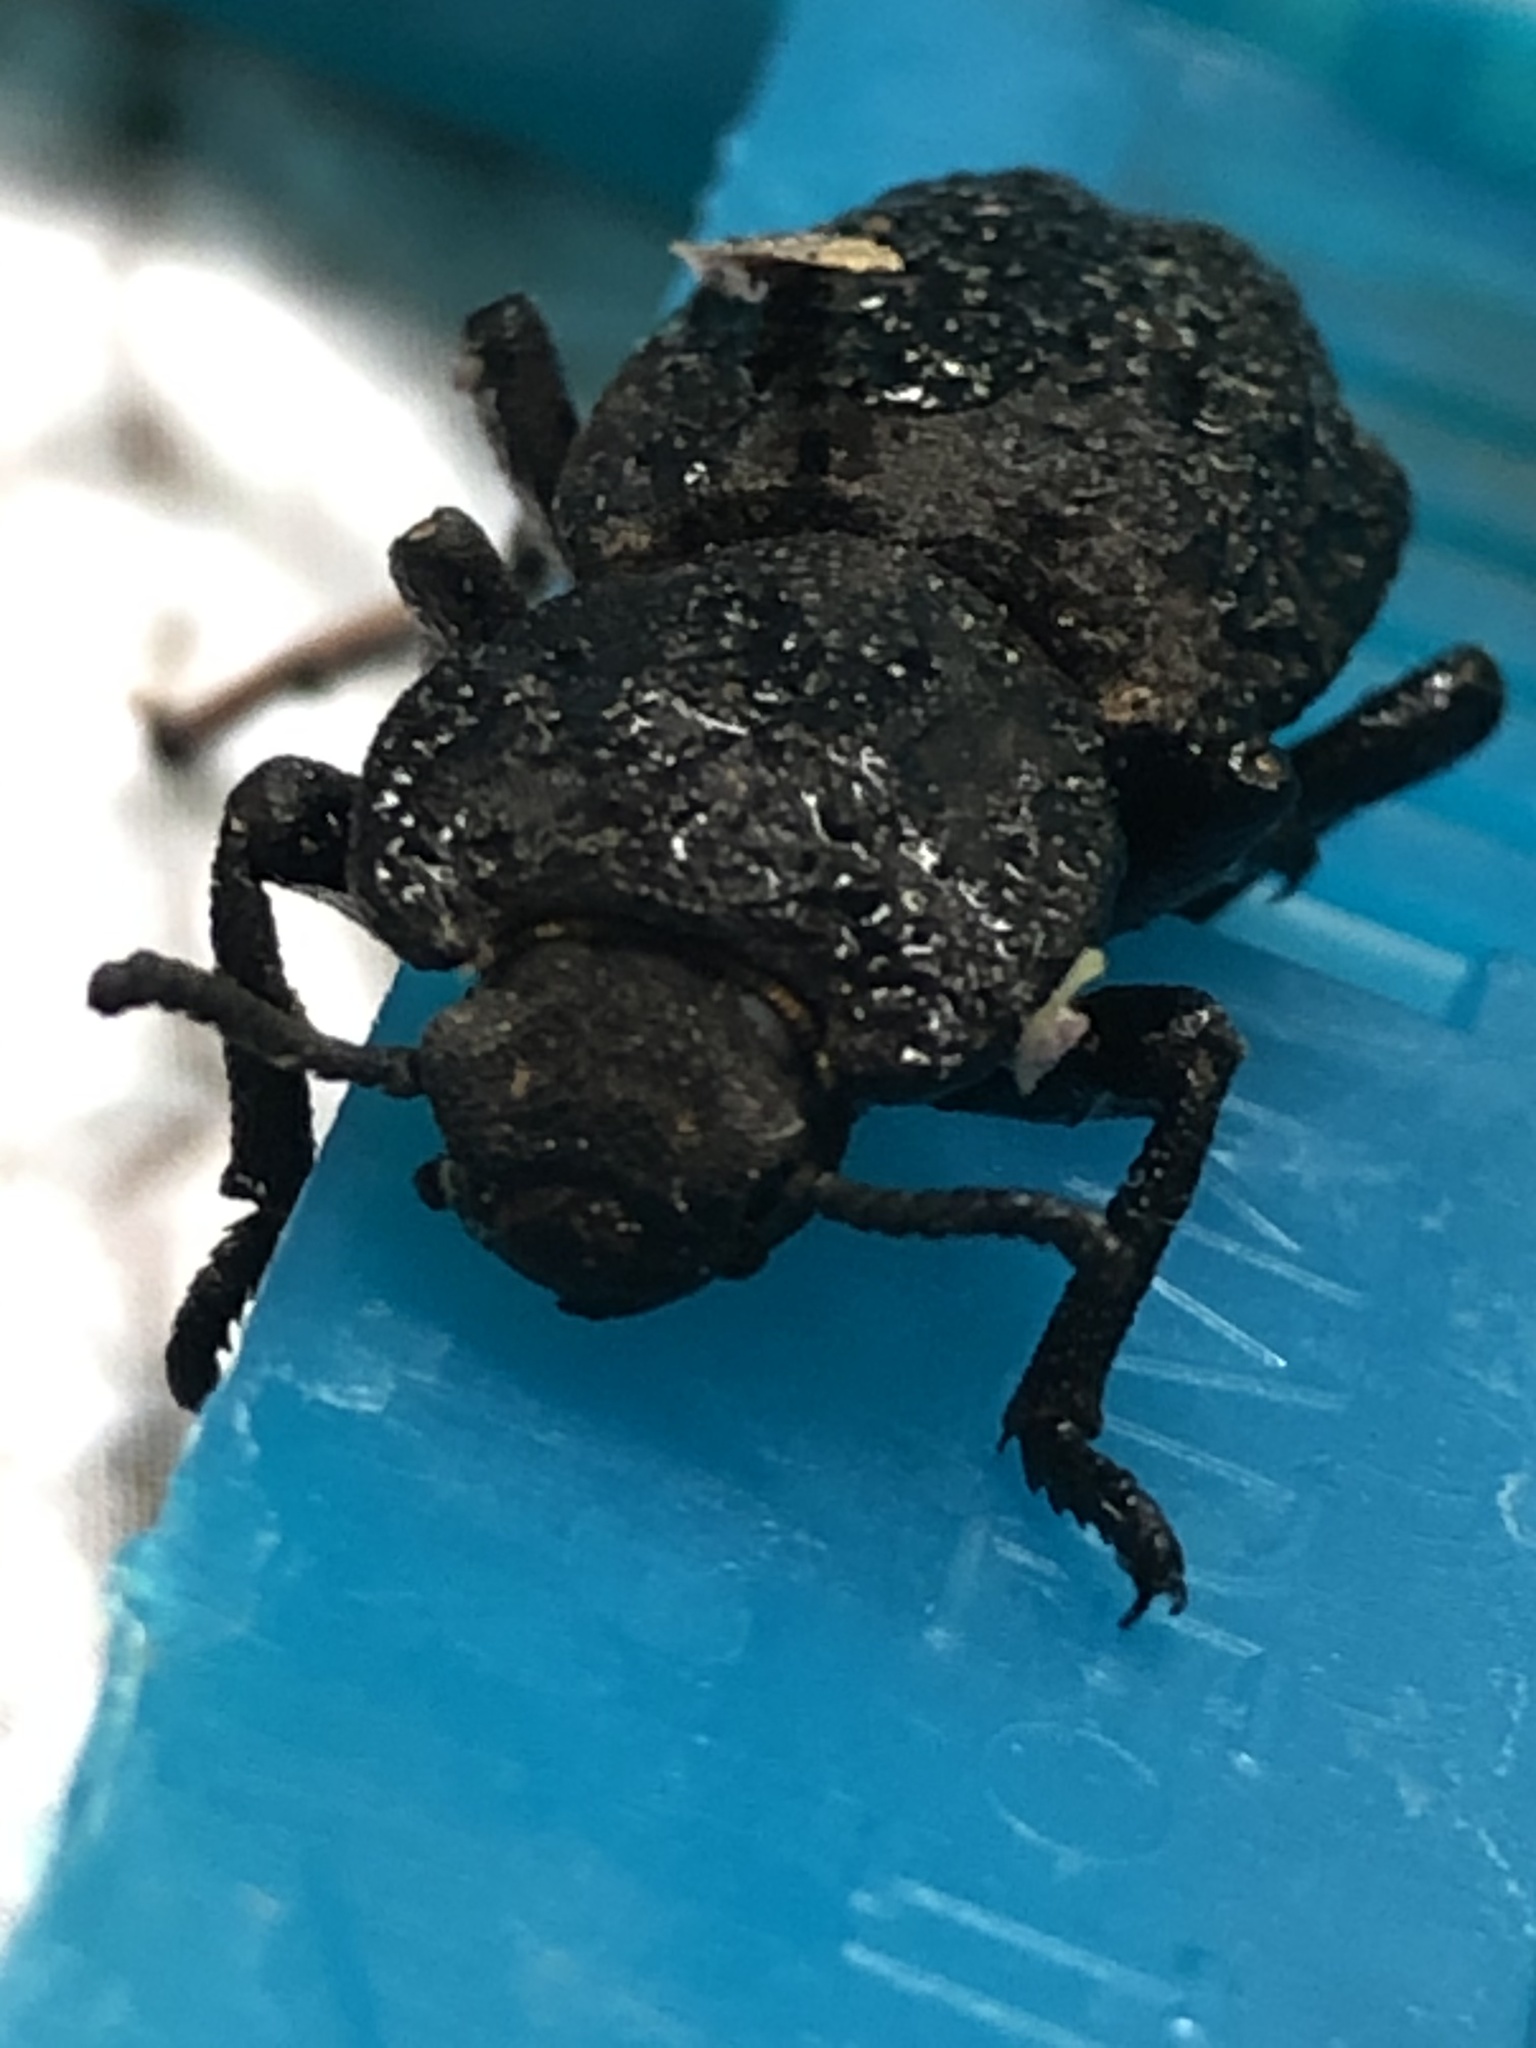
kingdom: Animalia
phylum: Arthropoda
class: Insecta
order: Coleoptera
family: Zopheridae
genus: Phloeodes
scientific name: Phloeodes diabolicus
